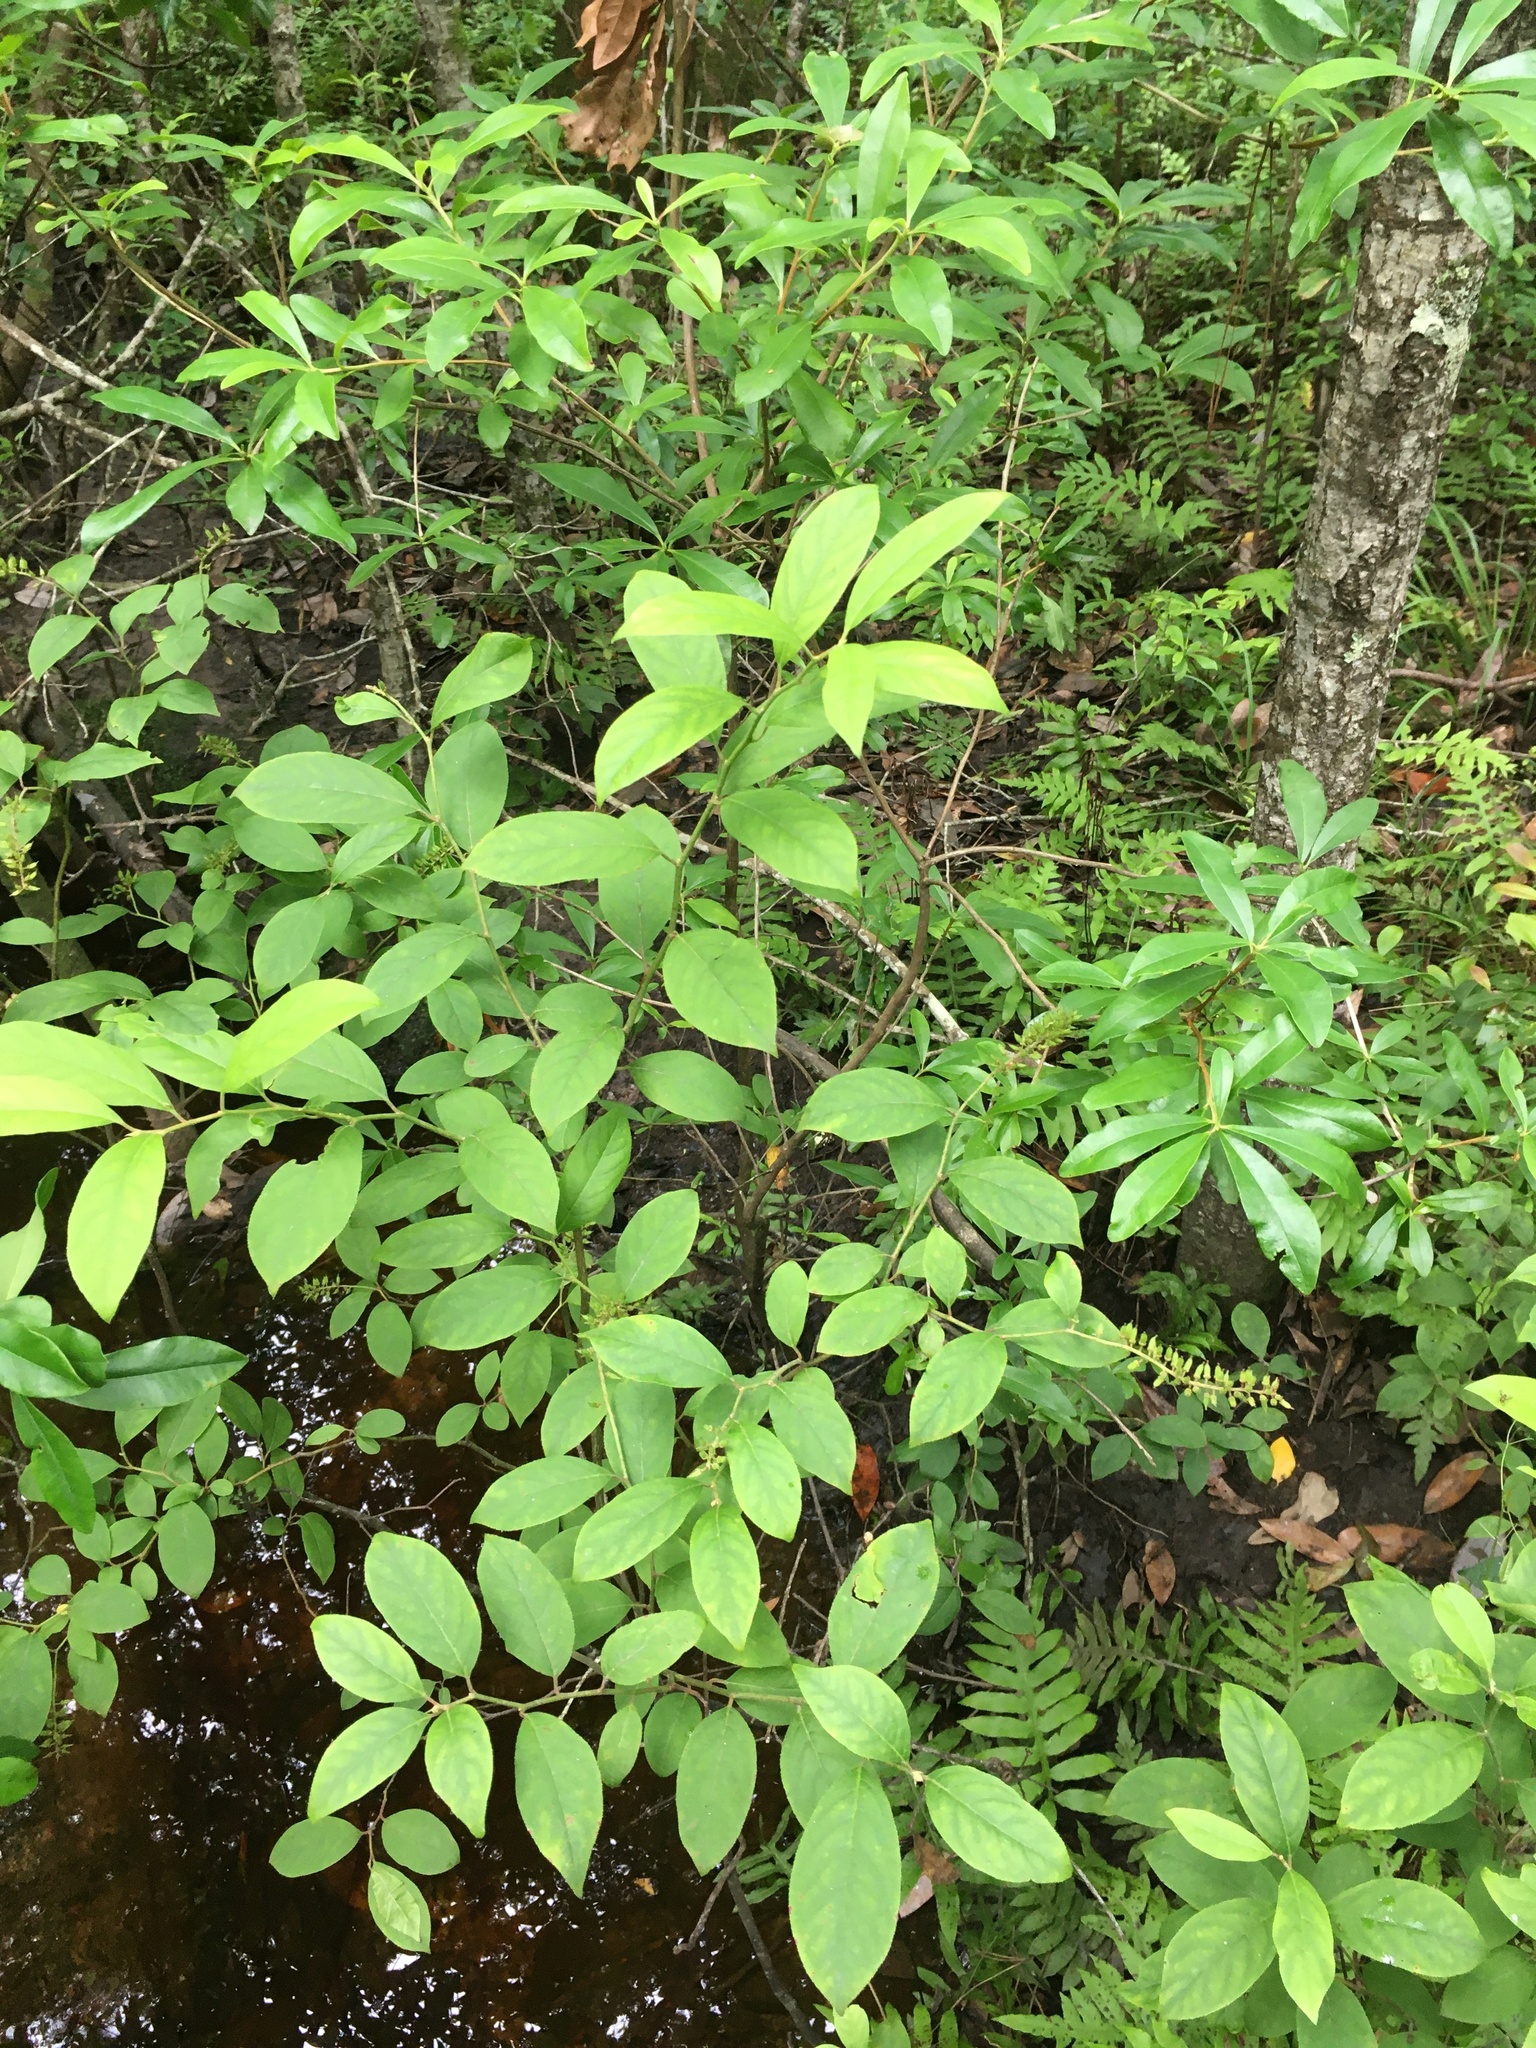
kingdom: Plantae
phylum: Tracheophyta
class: Magnoliopsida
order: Saxifragales
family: Iteaceae
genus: Itea
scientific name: Itea virginica
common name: Sweetspire
